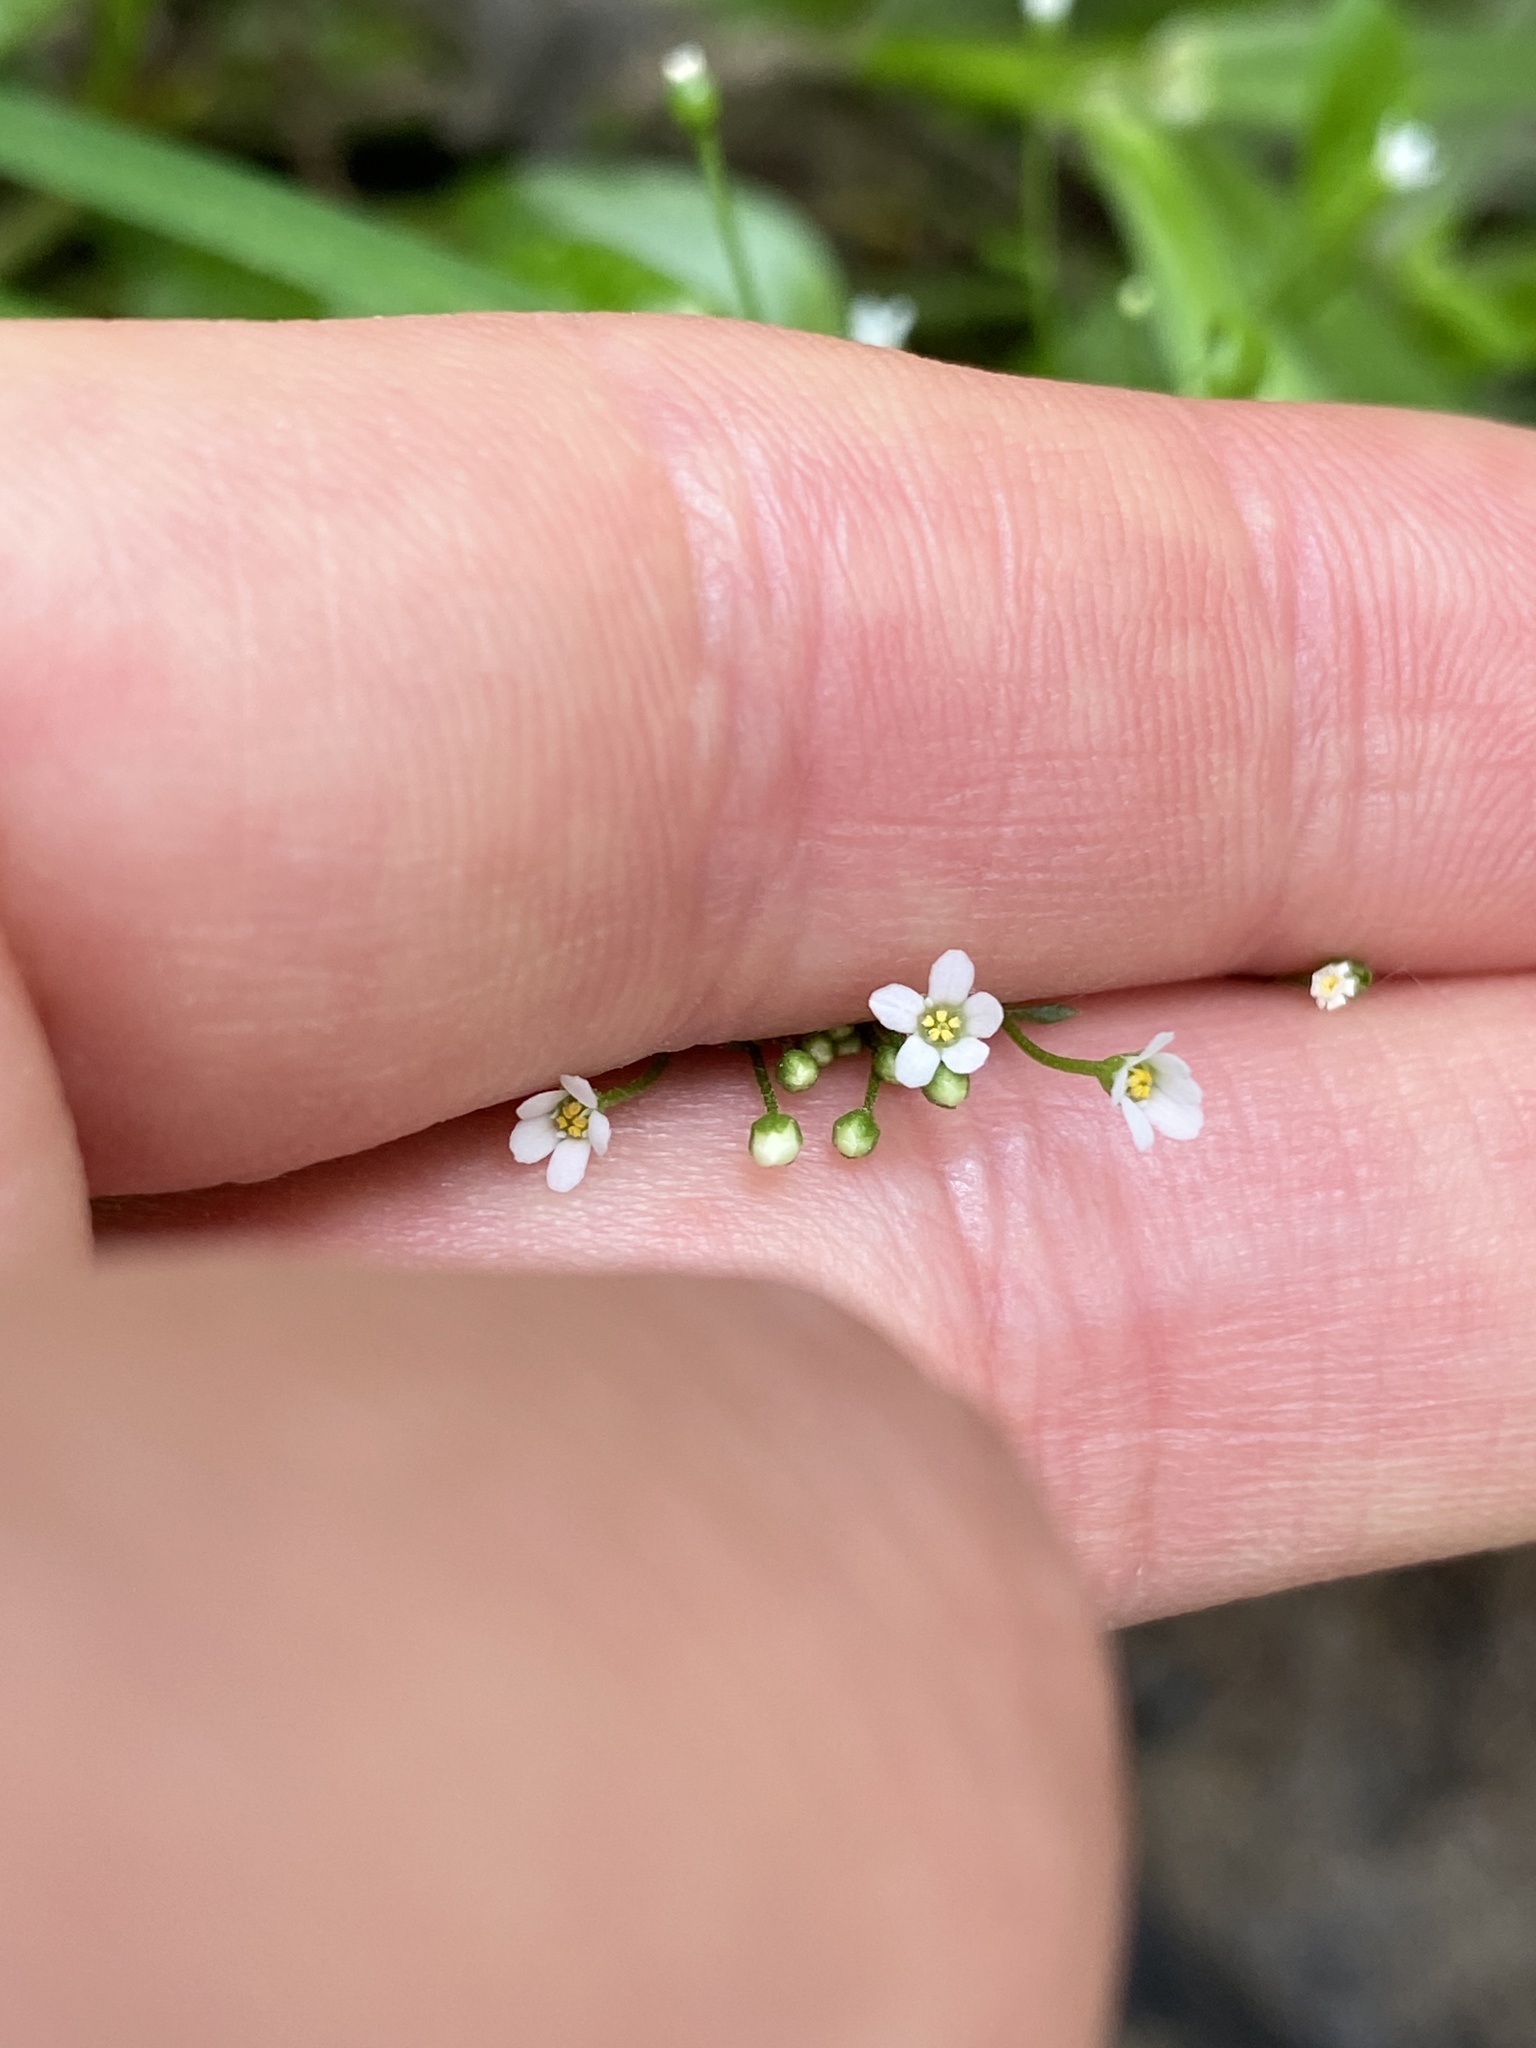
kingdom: Plantae
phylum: Tracheophyta
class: Magnoliopsida
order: Ericales
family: Primulaceae
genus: Samolus
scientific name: Samolus parviflorus
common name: False water pimpernel
